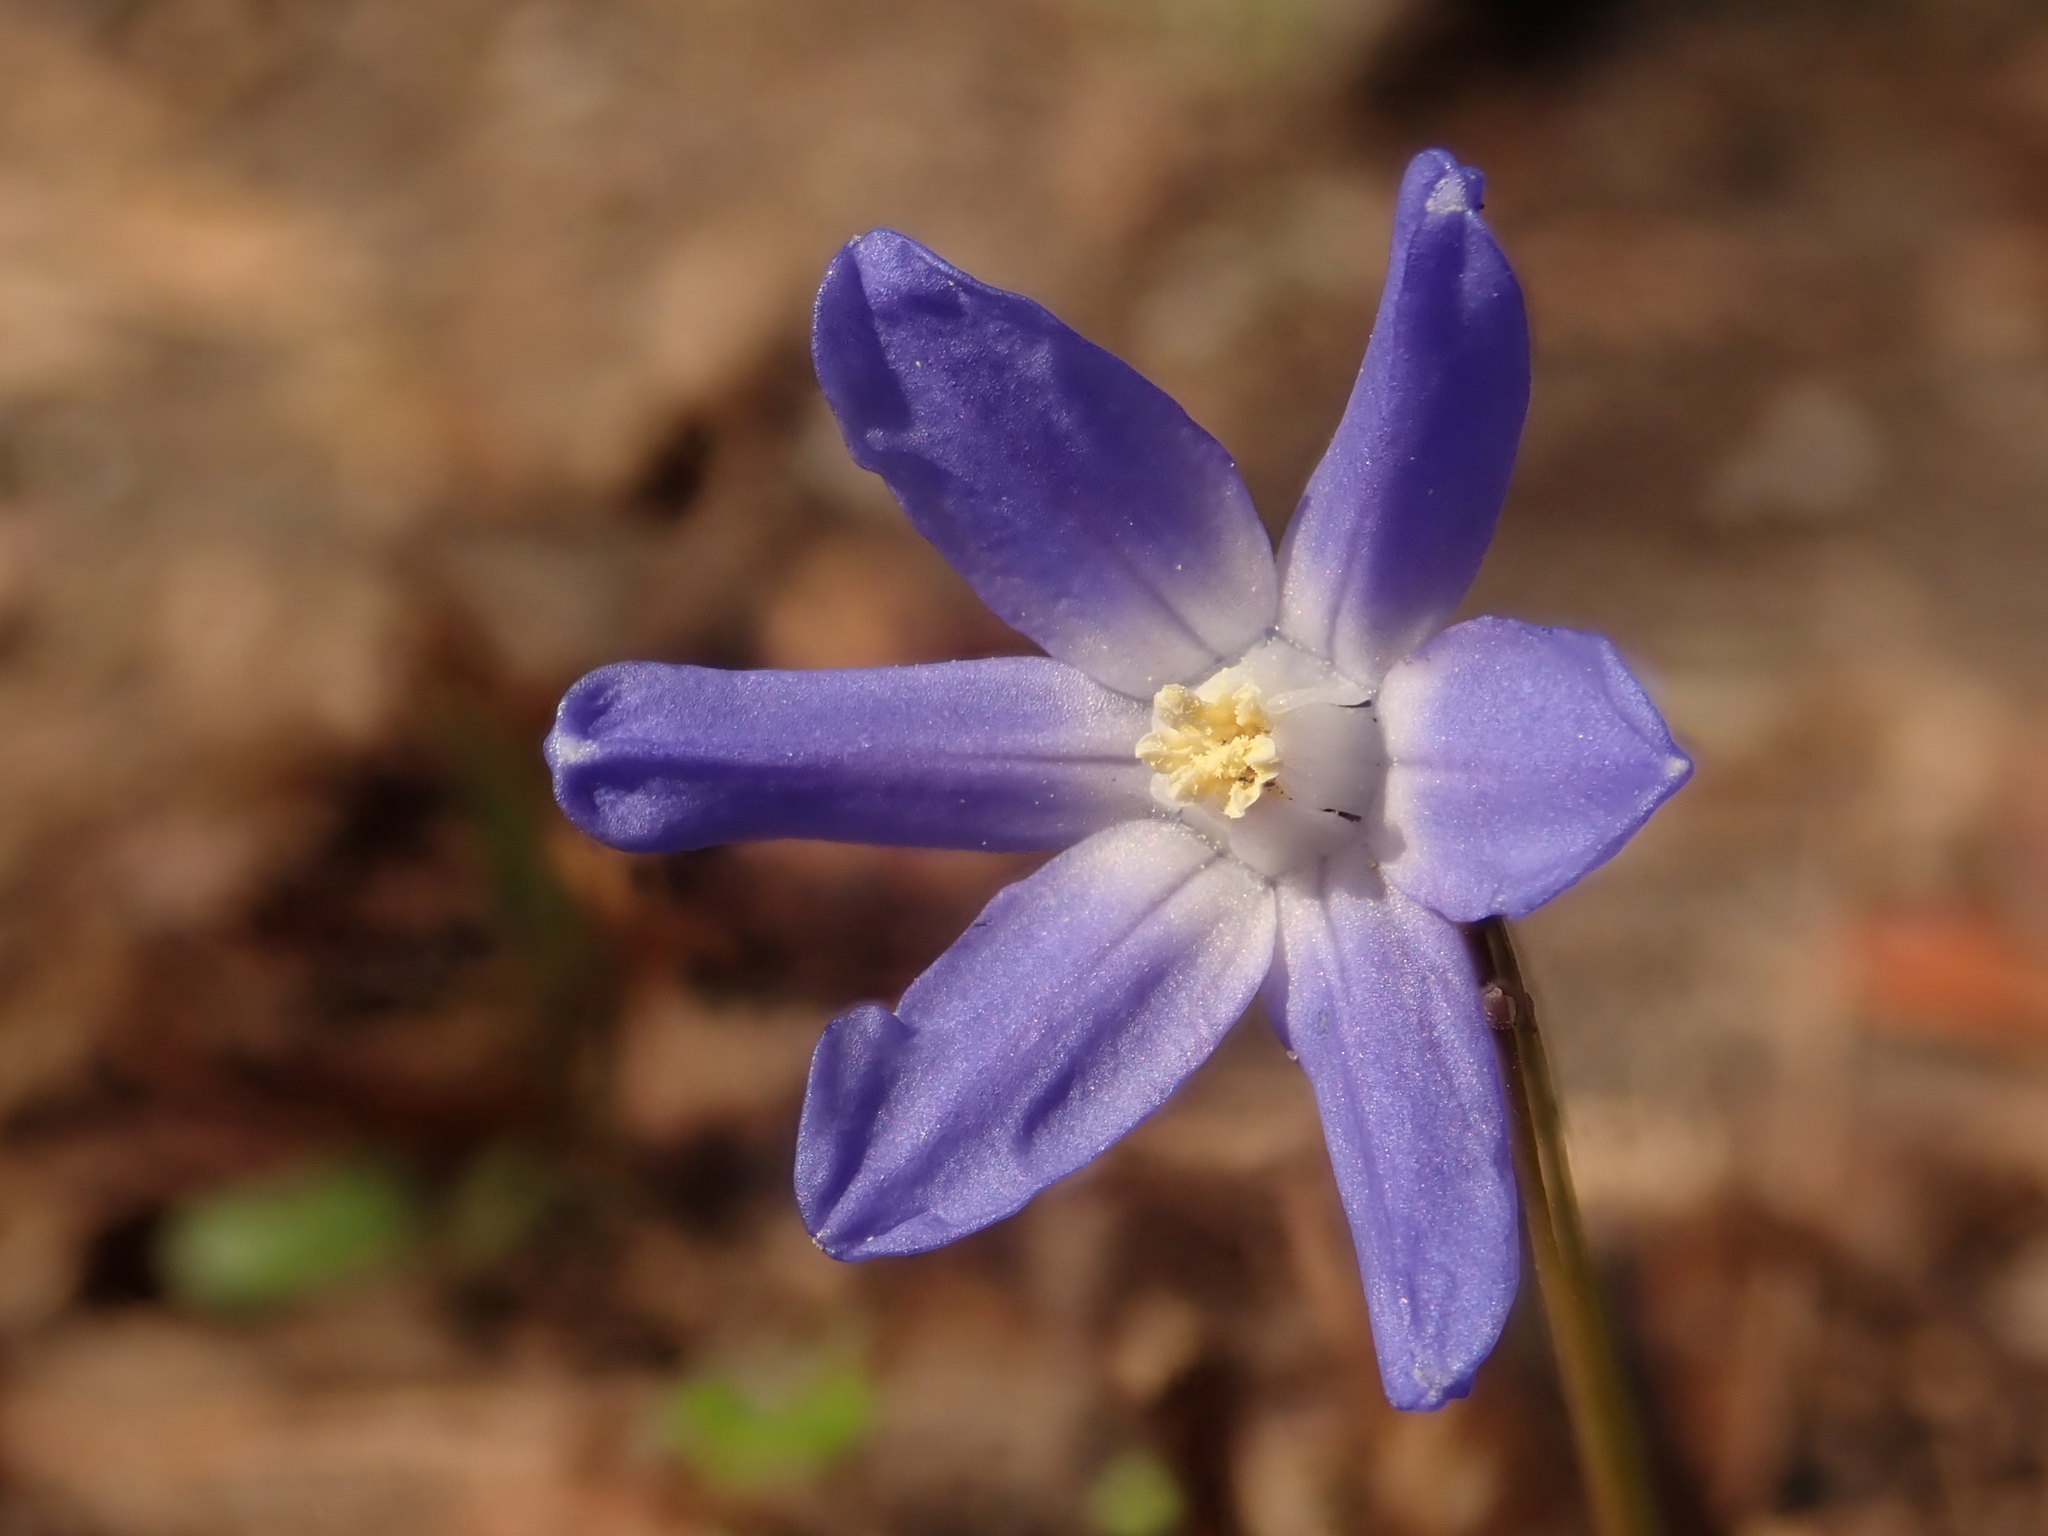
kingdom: Plantae
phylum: Tracheophyta
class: Liliopsida
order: Asparagales
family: Asparagaceae
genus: Scilla
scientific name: Scilla luciliae
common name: Boissier's glory-of-the-snow
